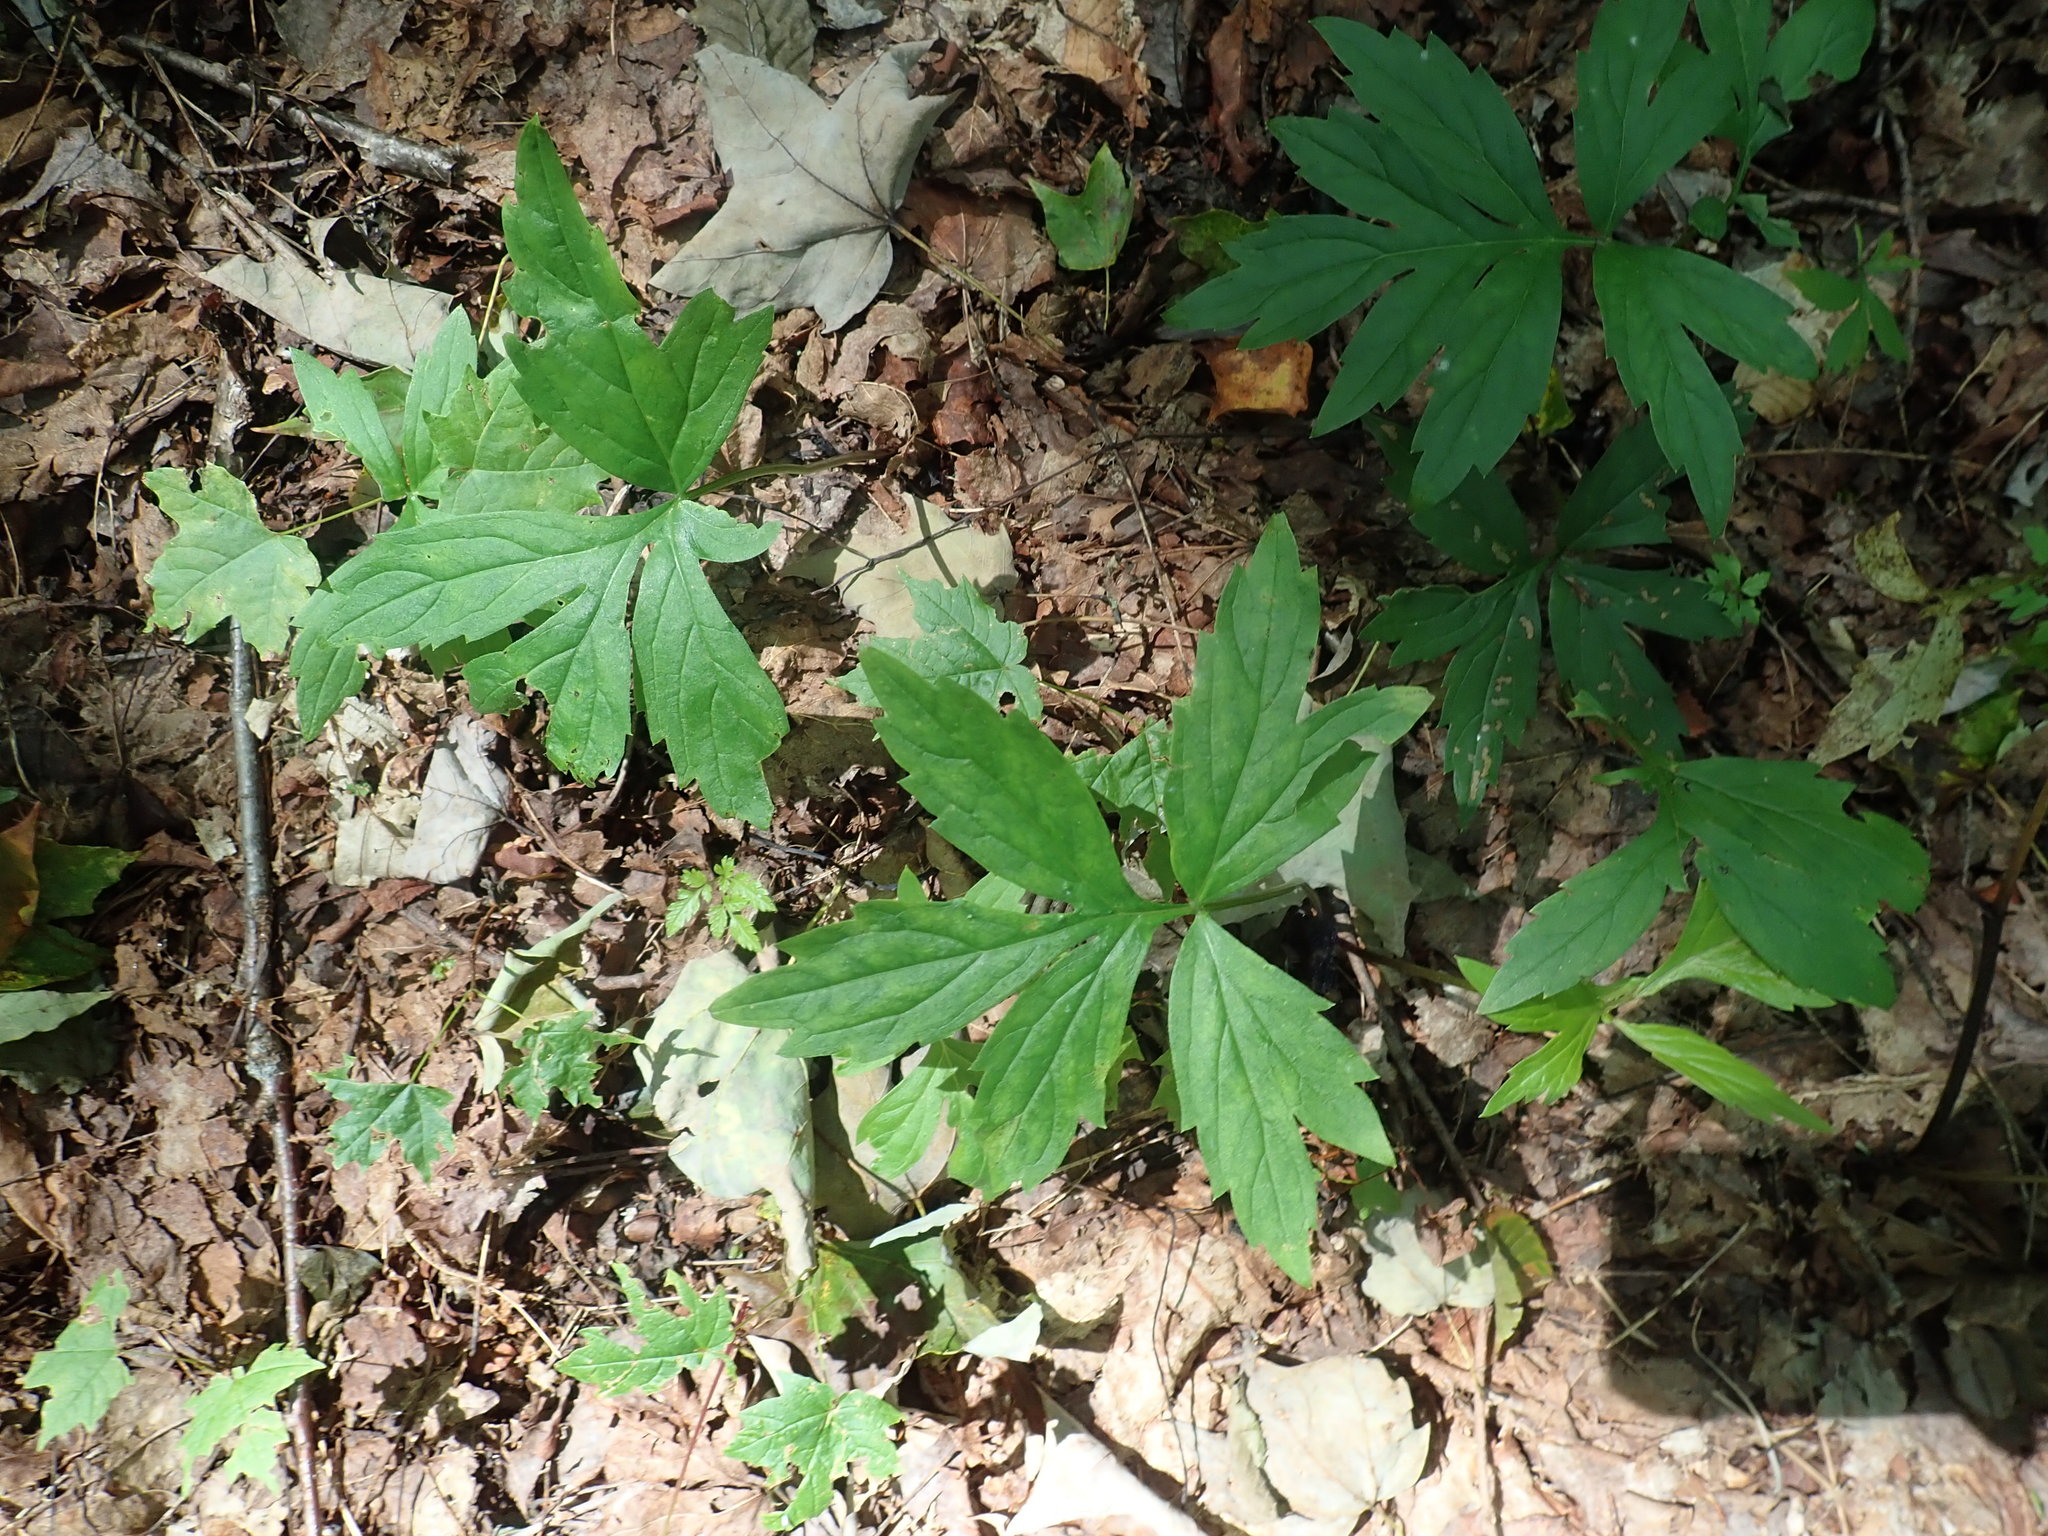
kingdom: Plantae
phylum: Tracheophyta
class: Magnoliopsida
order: Boraginales
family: Hydrophyllaceae
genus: Hydrophyllum
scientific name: Hydrophyllum virginianum
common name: Virginia waterleaf
